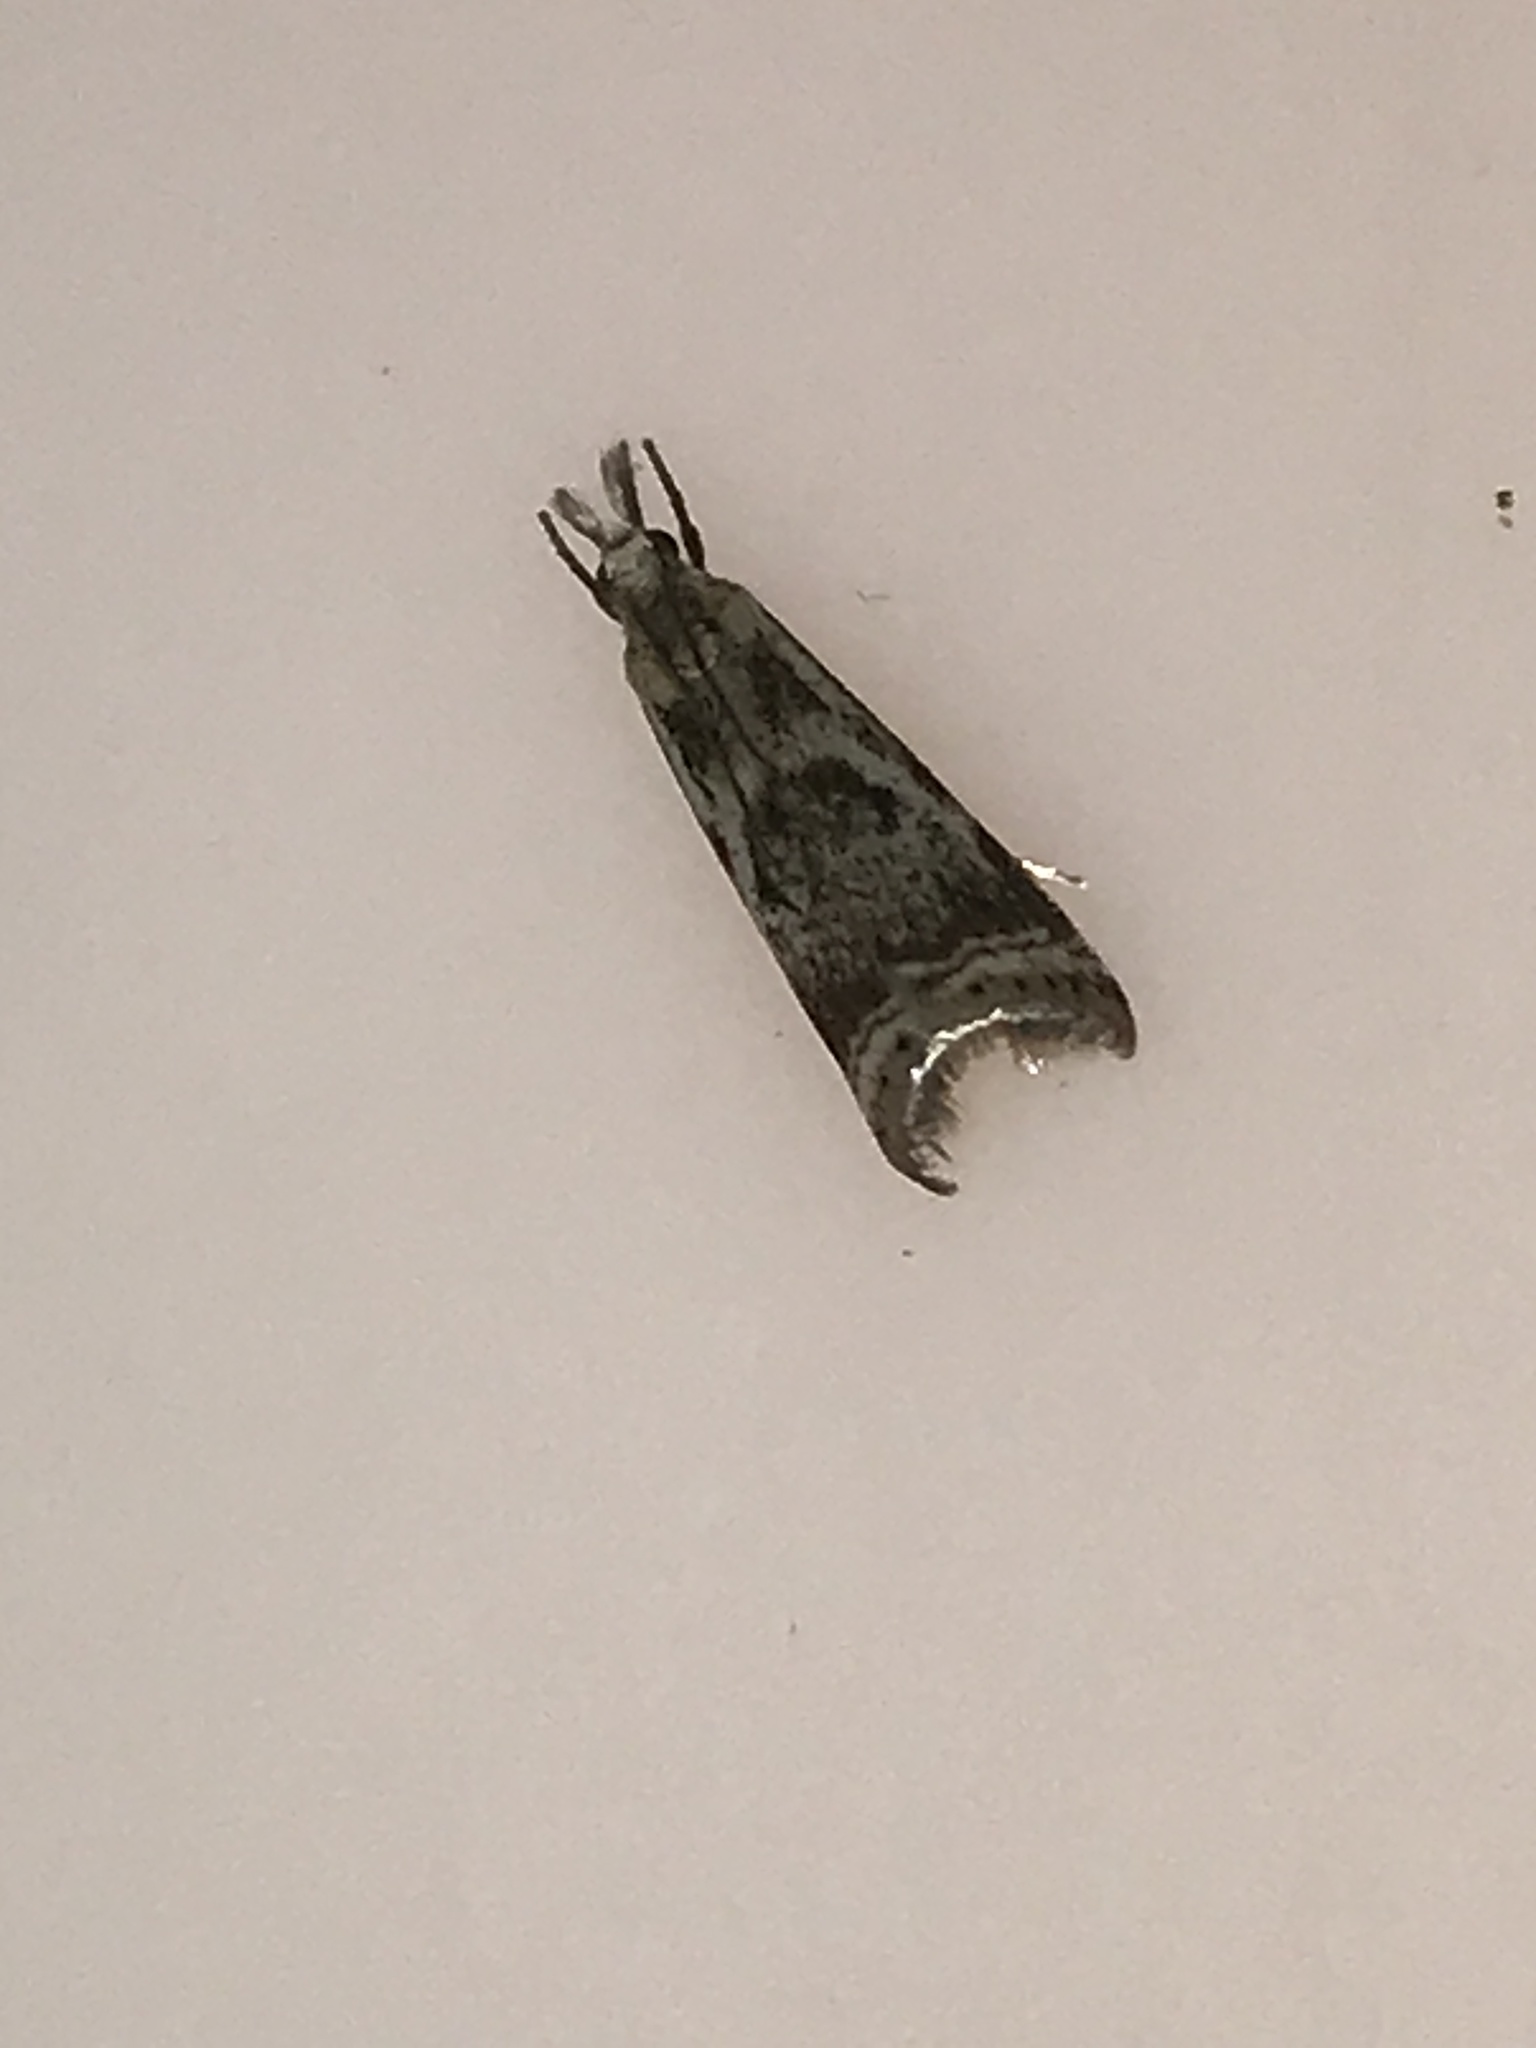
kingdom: Animalia
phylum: Arthropoda
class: Insecta
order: Lepidoptera
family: Crambidae
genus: Microcrambus
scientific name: Microcrambus elegans
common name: Elegant grass-veneer
